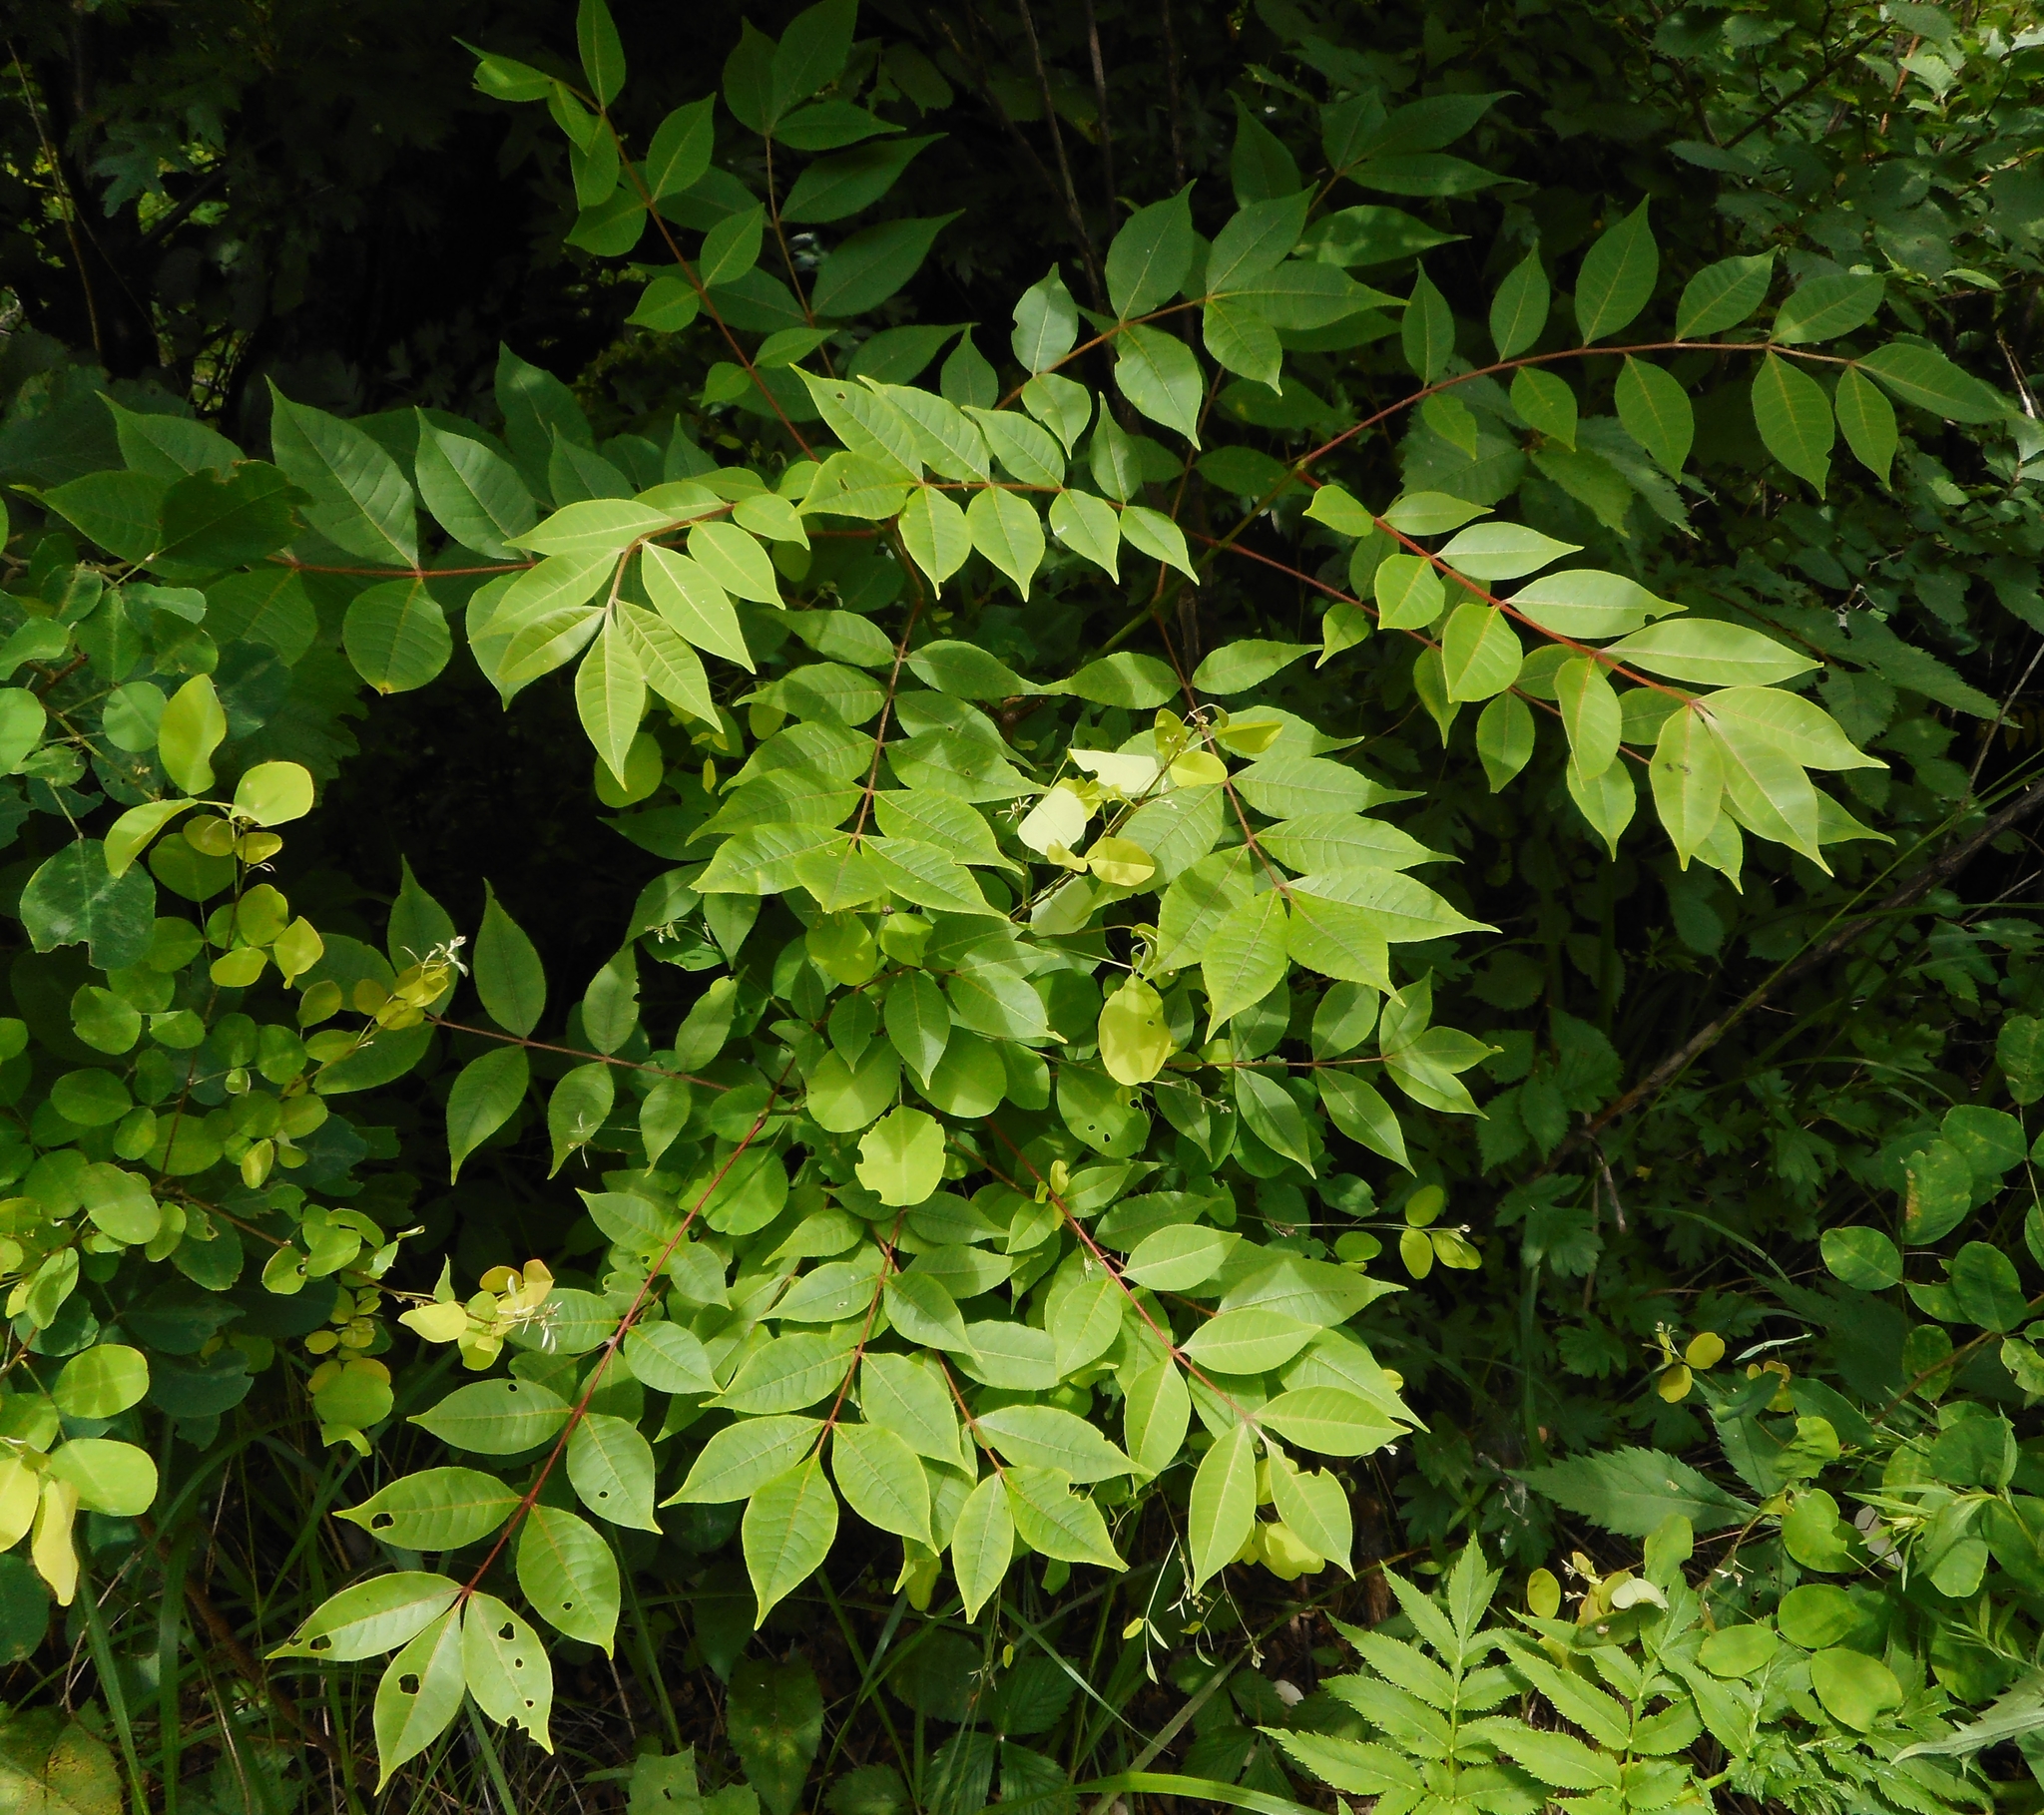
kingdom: Plantae
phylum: Tracheophyta
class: Magnoliopsida
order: Sapindales
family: Rutaceae
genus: Phellodendron
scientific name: Phellodendron amurense
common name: Amur corktree
